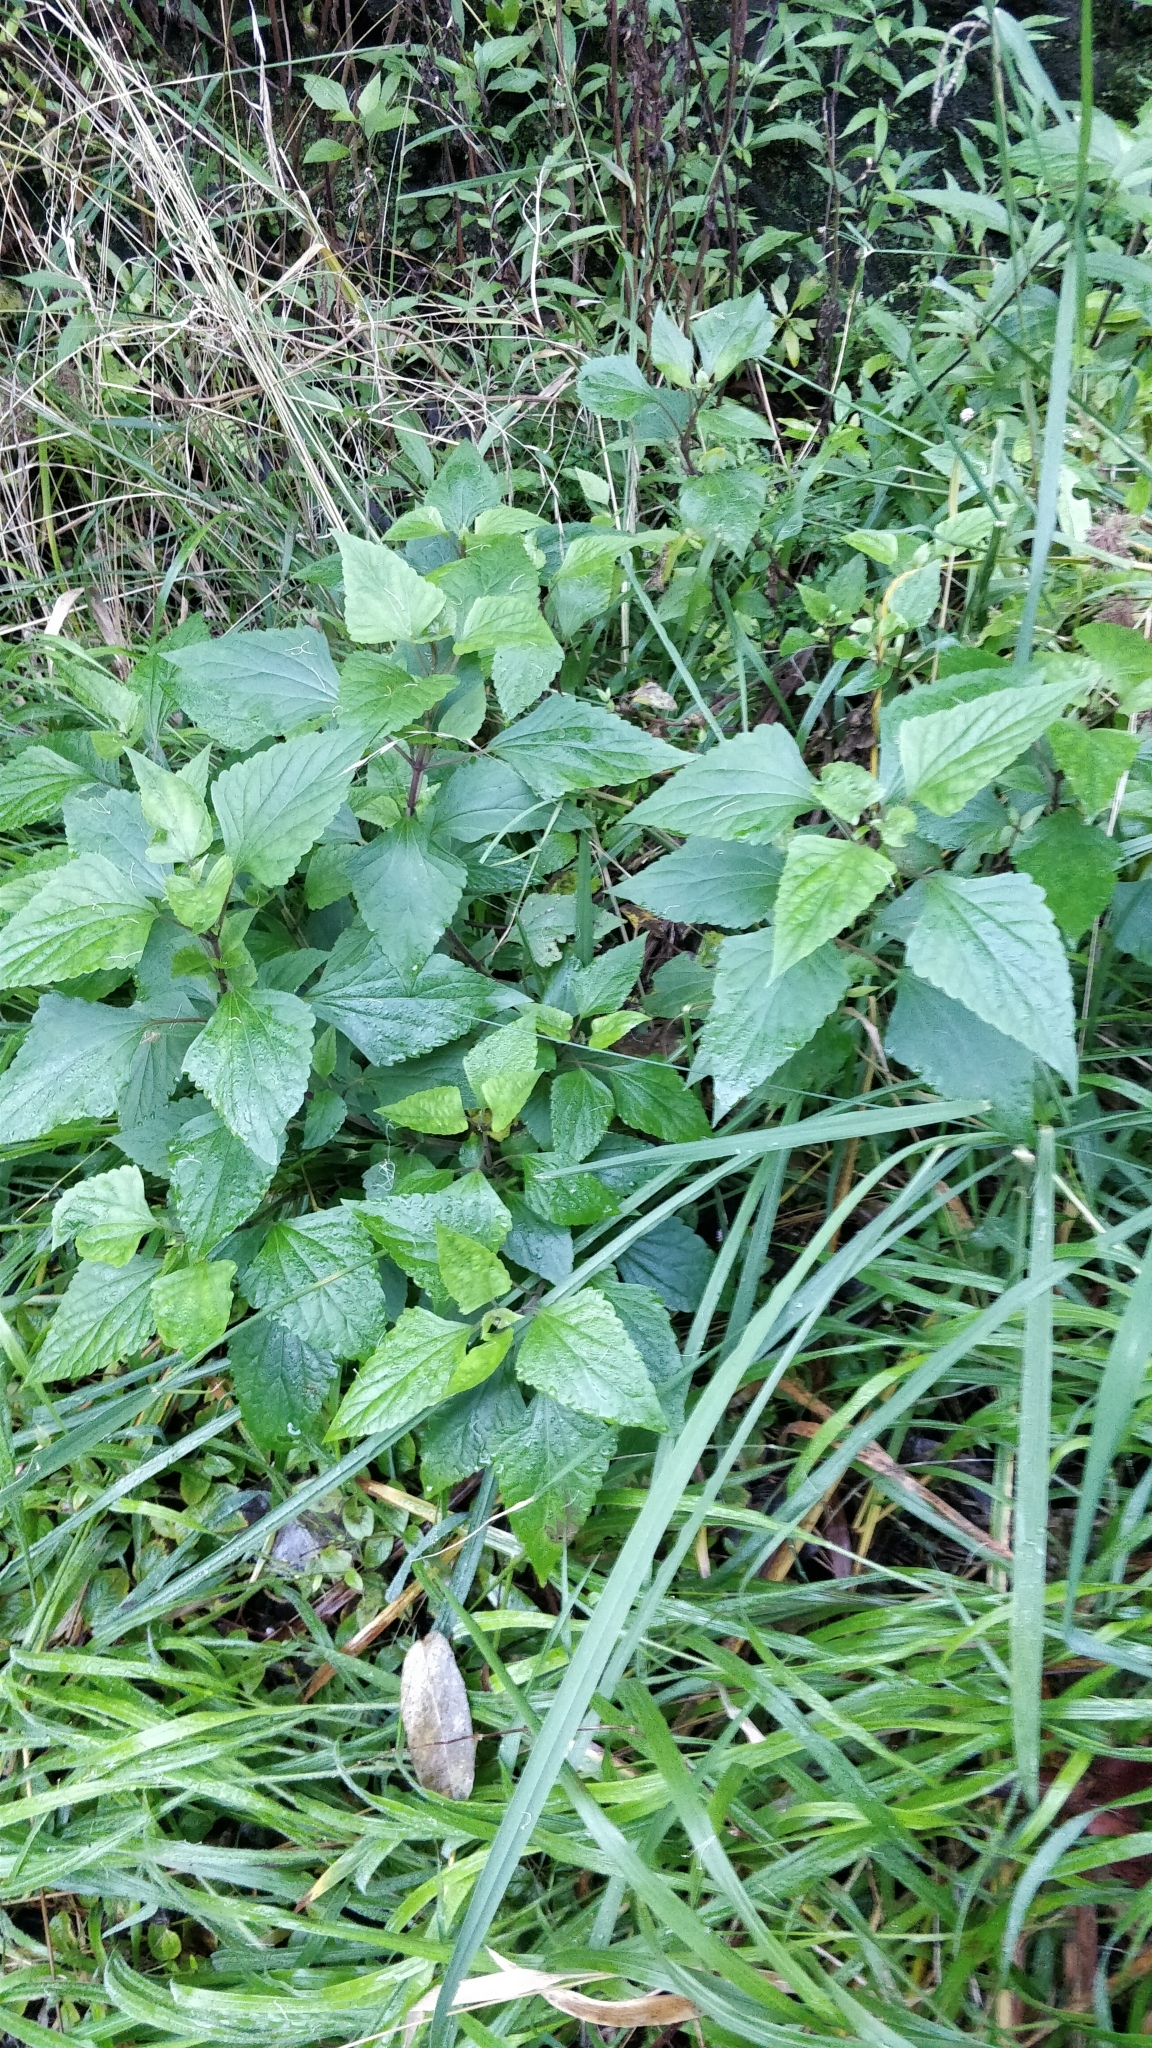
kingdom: Plantae
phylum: Tracheophyta
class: Magnoliopsida
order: Asterales
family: Asteraceae
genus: Ageratina
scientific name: Ageratina adenophora
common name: Sticky snakeroot
